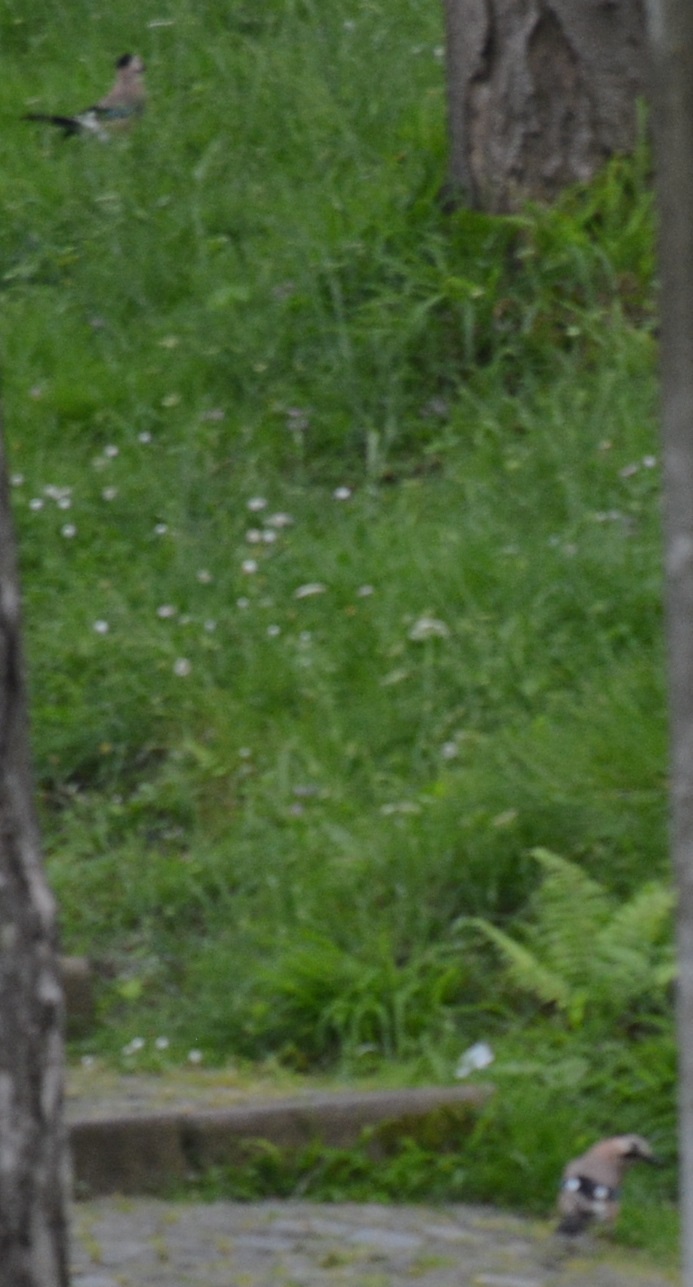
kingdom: Animalia
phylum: Chordata
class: Aves
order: Passeriformes
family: Corvidae
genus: Garrulus
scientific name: Garrulus glandarius
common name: Eurasian jay
